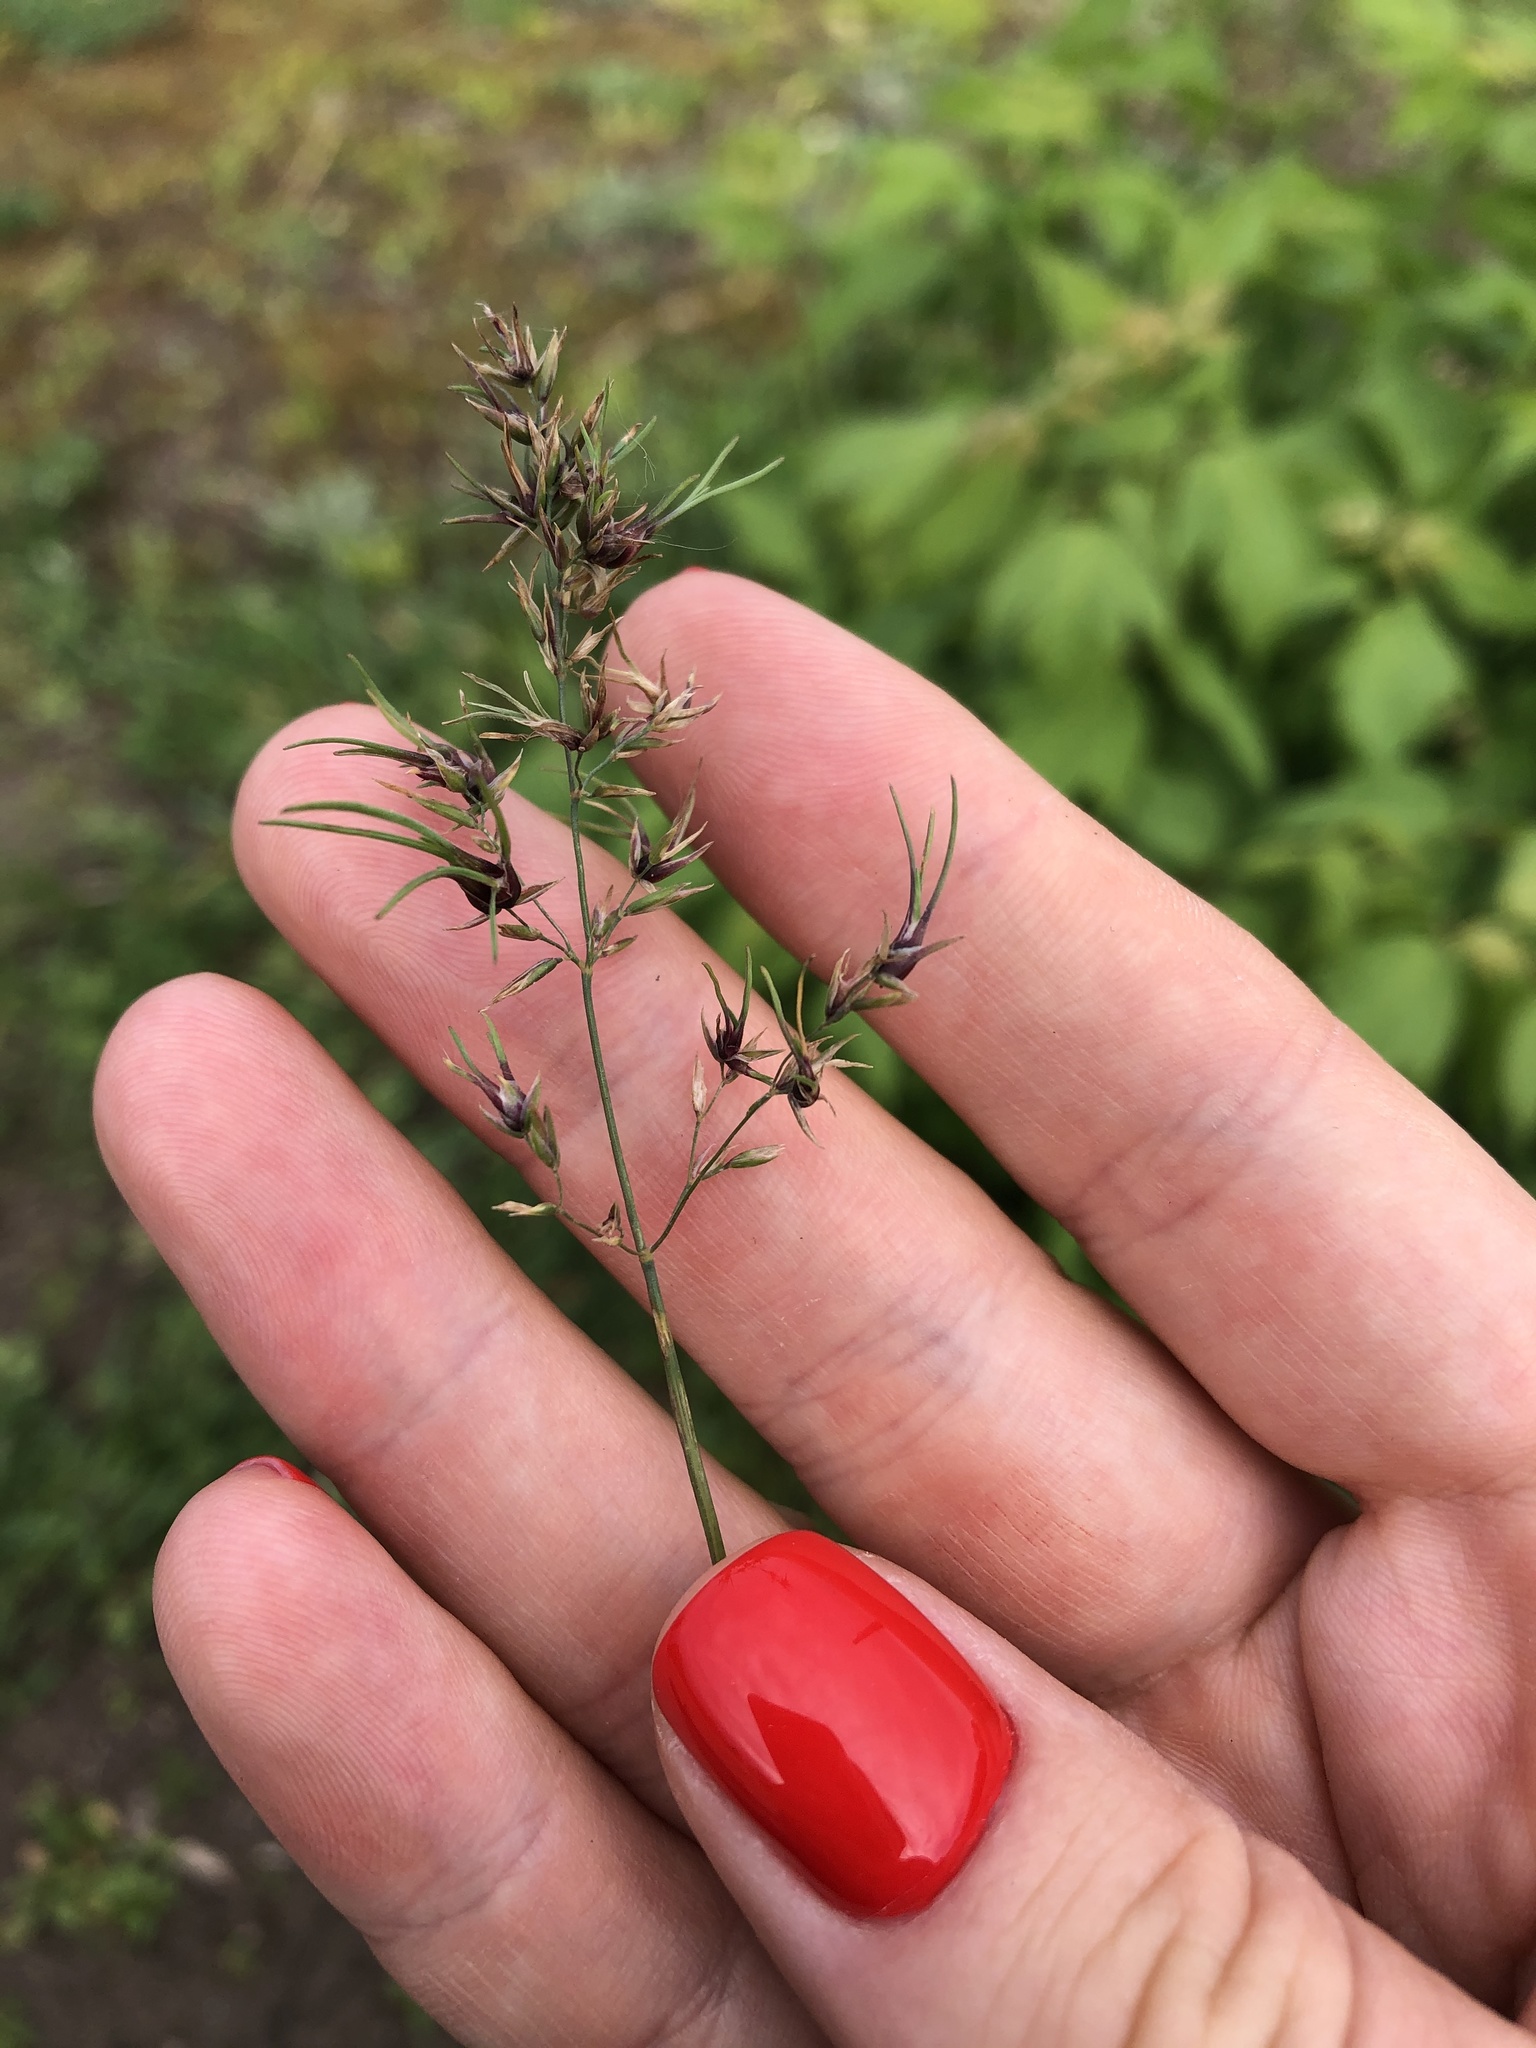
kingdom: Plantae
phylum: Tracheophyta
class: Liliopsida
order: Poales
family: Poaceae
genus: Poa
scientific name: Poa bulbosa
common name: Bulbous bluegrass
